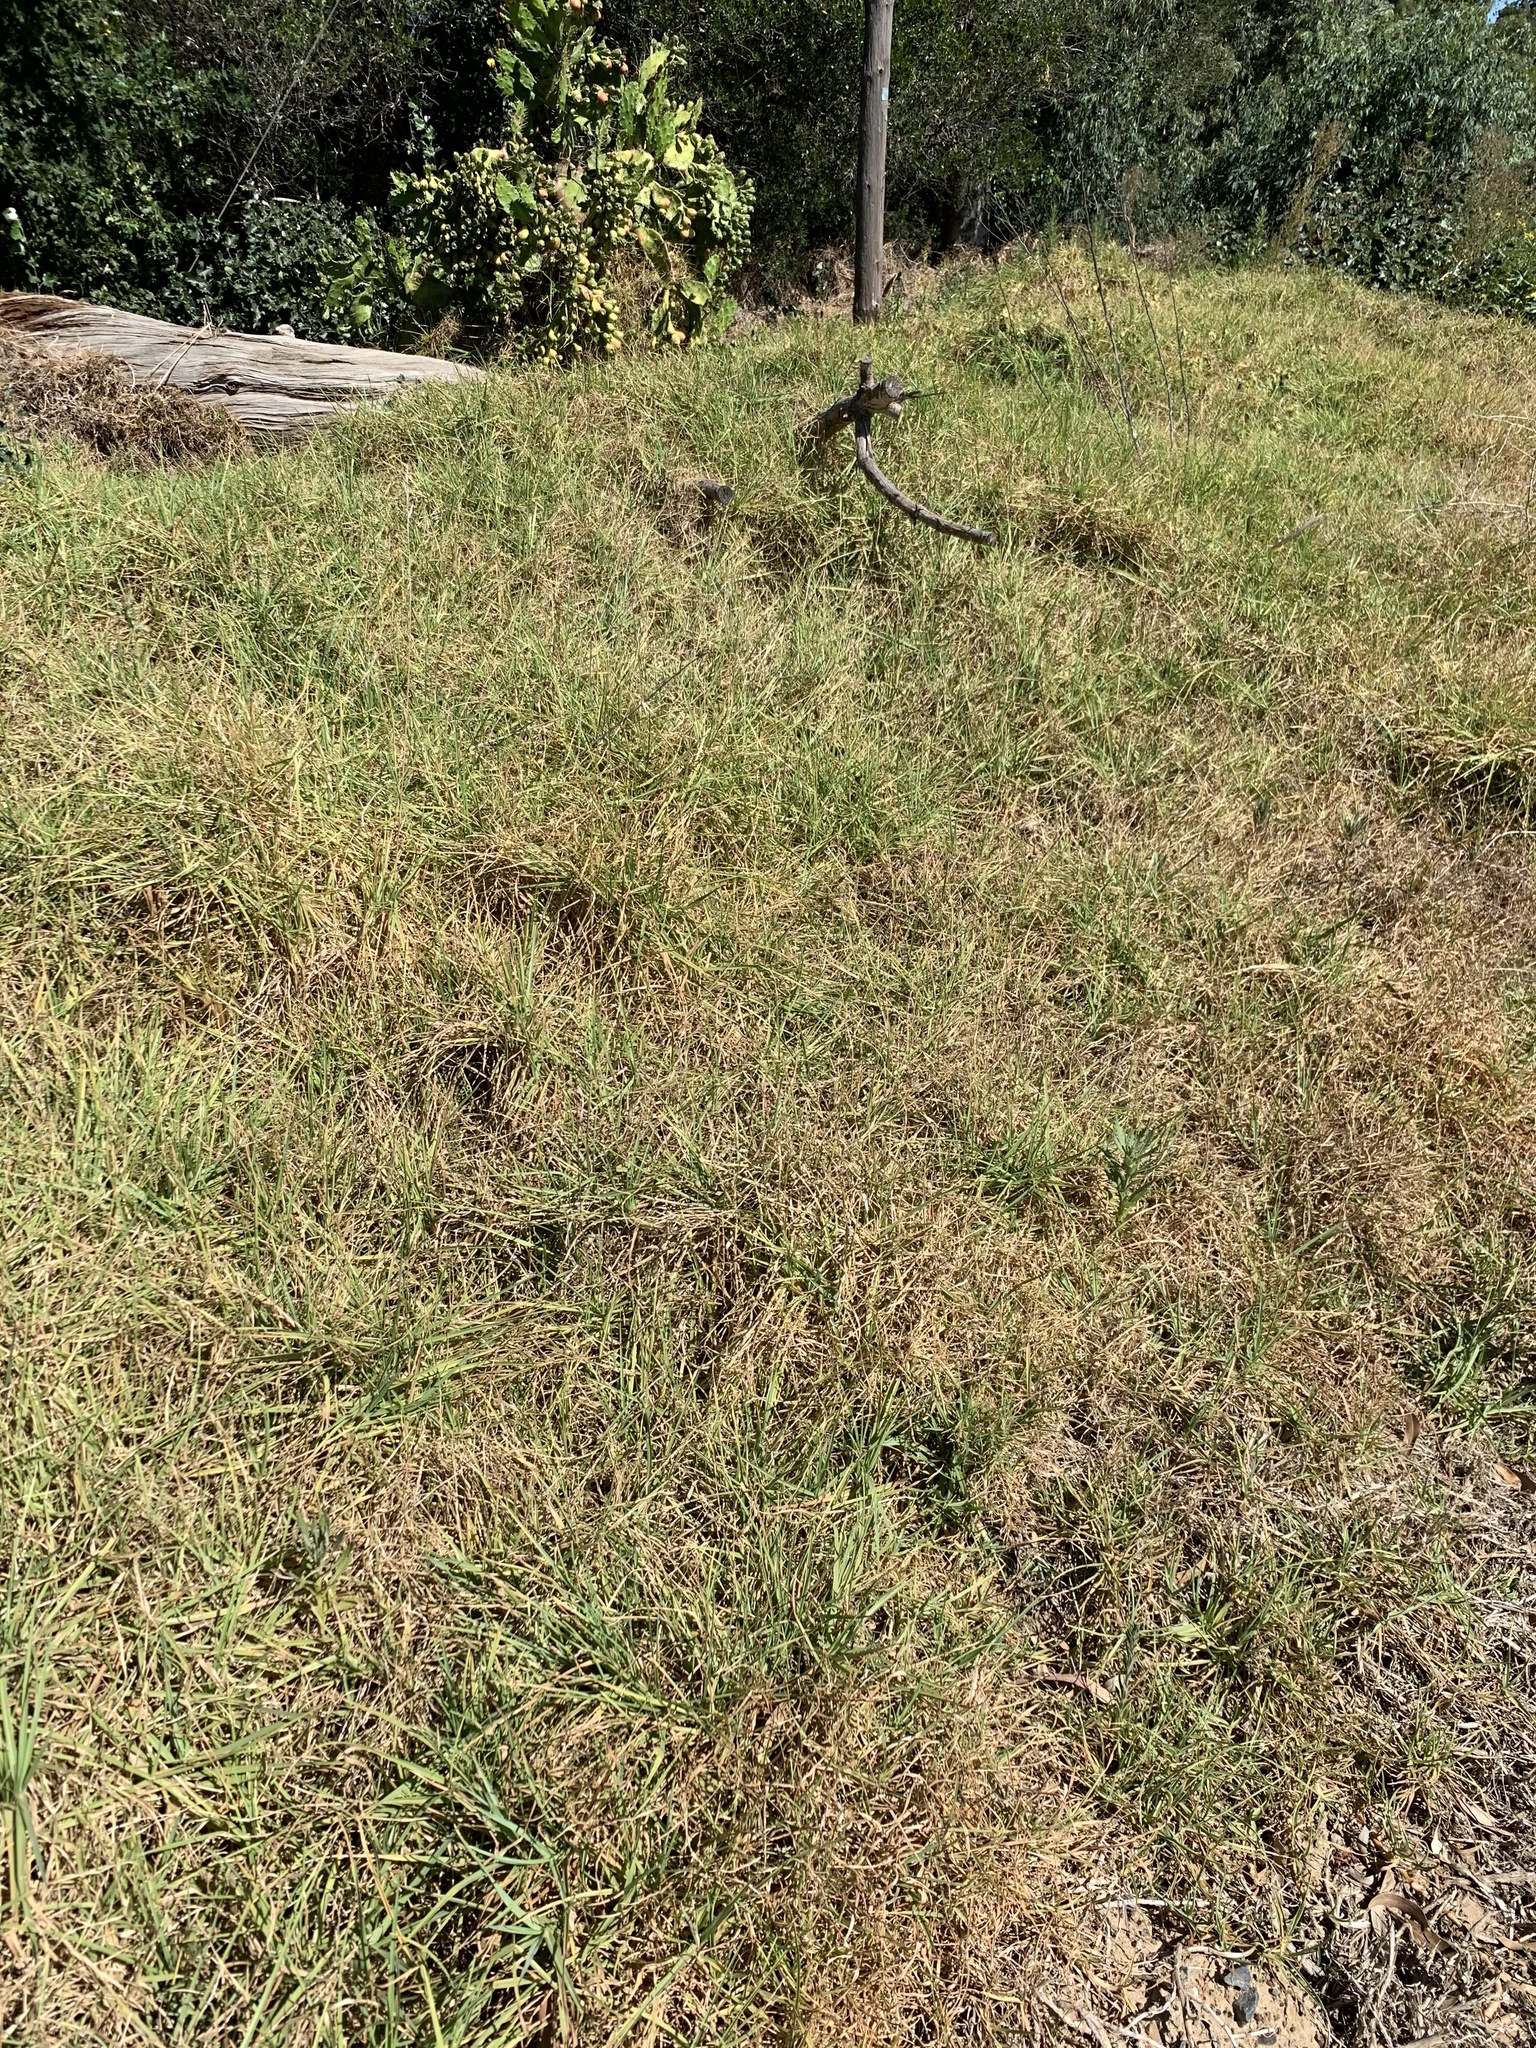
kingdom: Plantae
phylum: Tracheophyta
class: Liliopsida
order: Poales
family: Poaceae
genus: Cenchrus
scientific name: Cenchrus clandestinus
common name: Kikuyugrass
